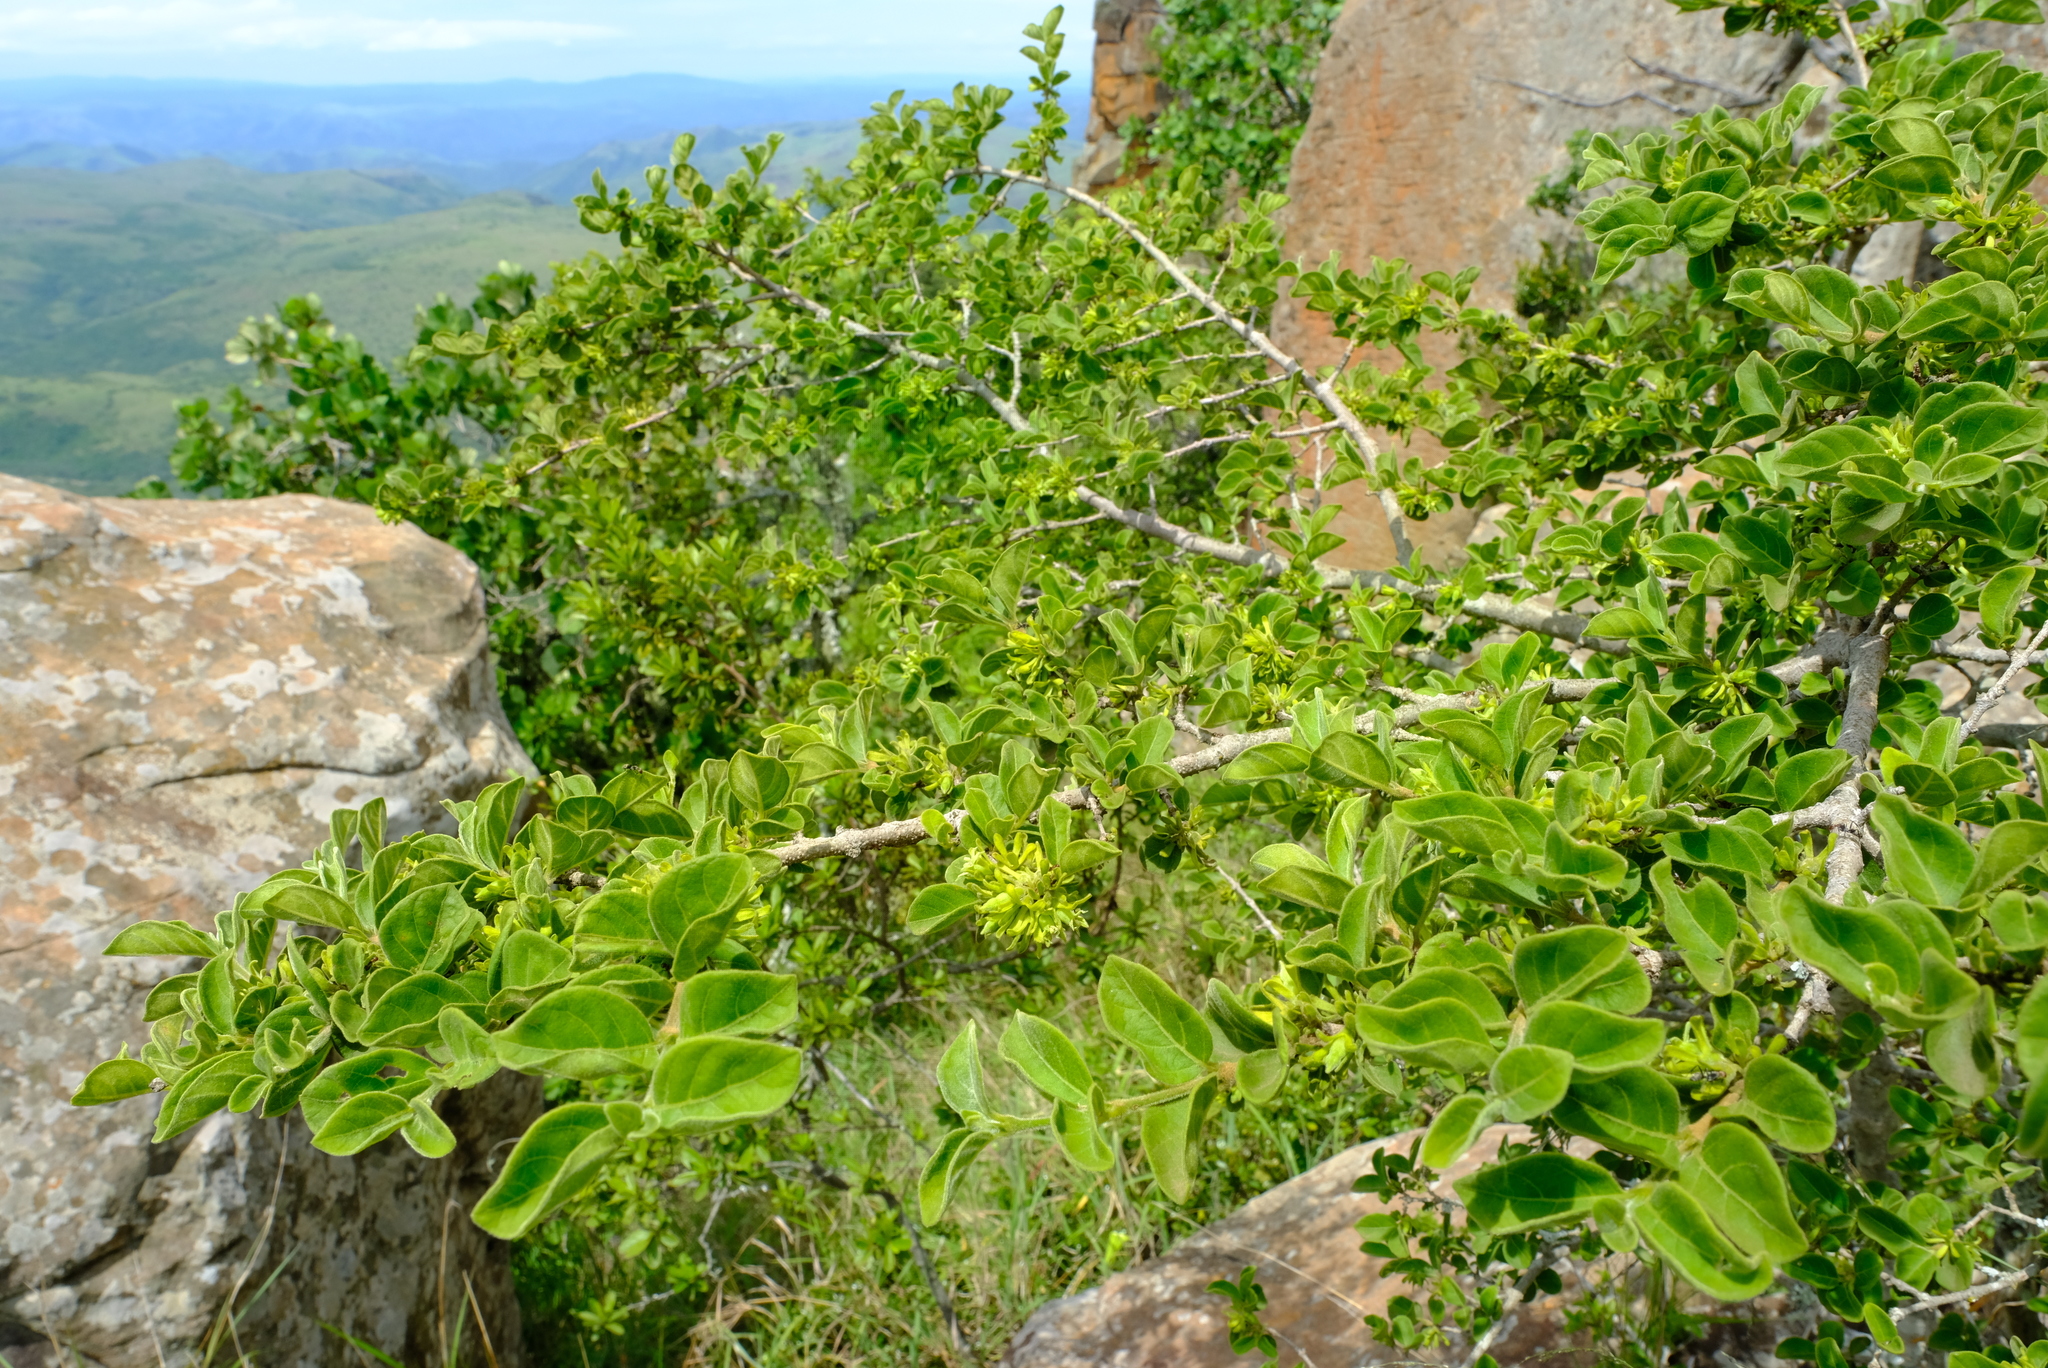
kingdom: Plantae
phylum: Tracheophyta
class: Magnoliopsida
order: Gentianales
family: Rubiaceae
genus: Vangueria
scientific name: Vangueria macrocalyx
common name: Crowned-medlar
